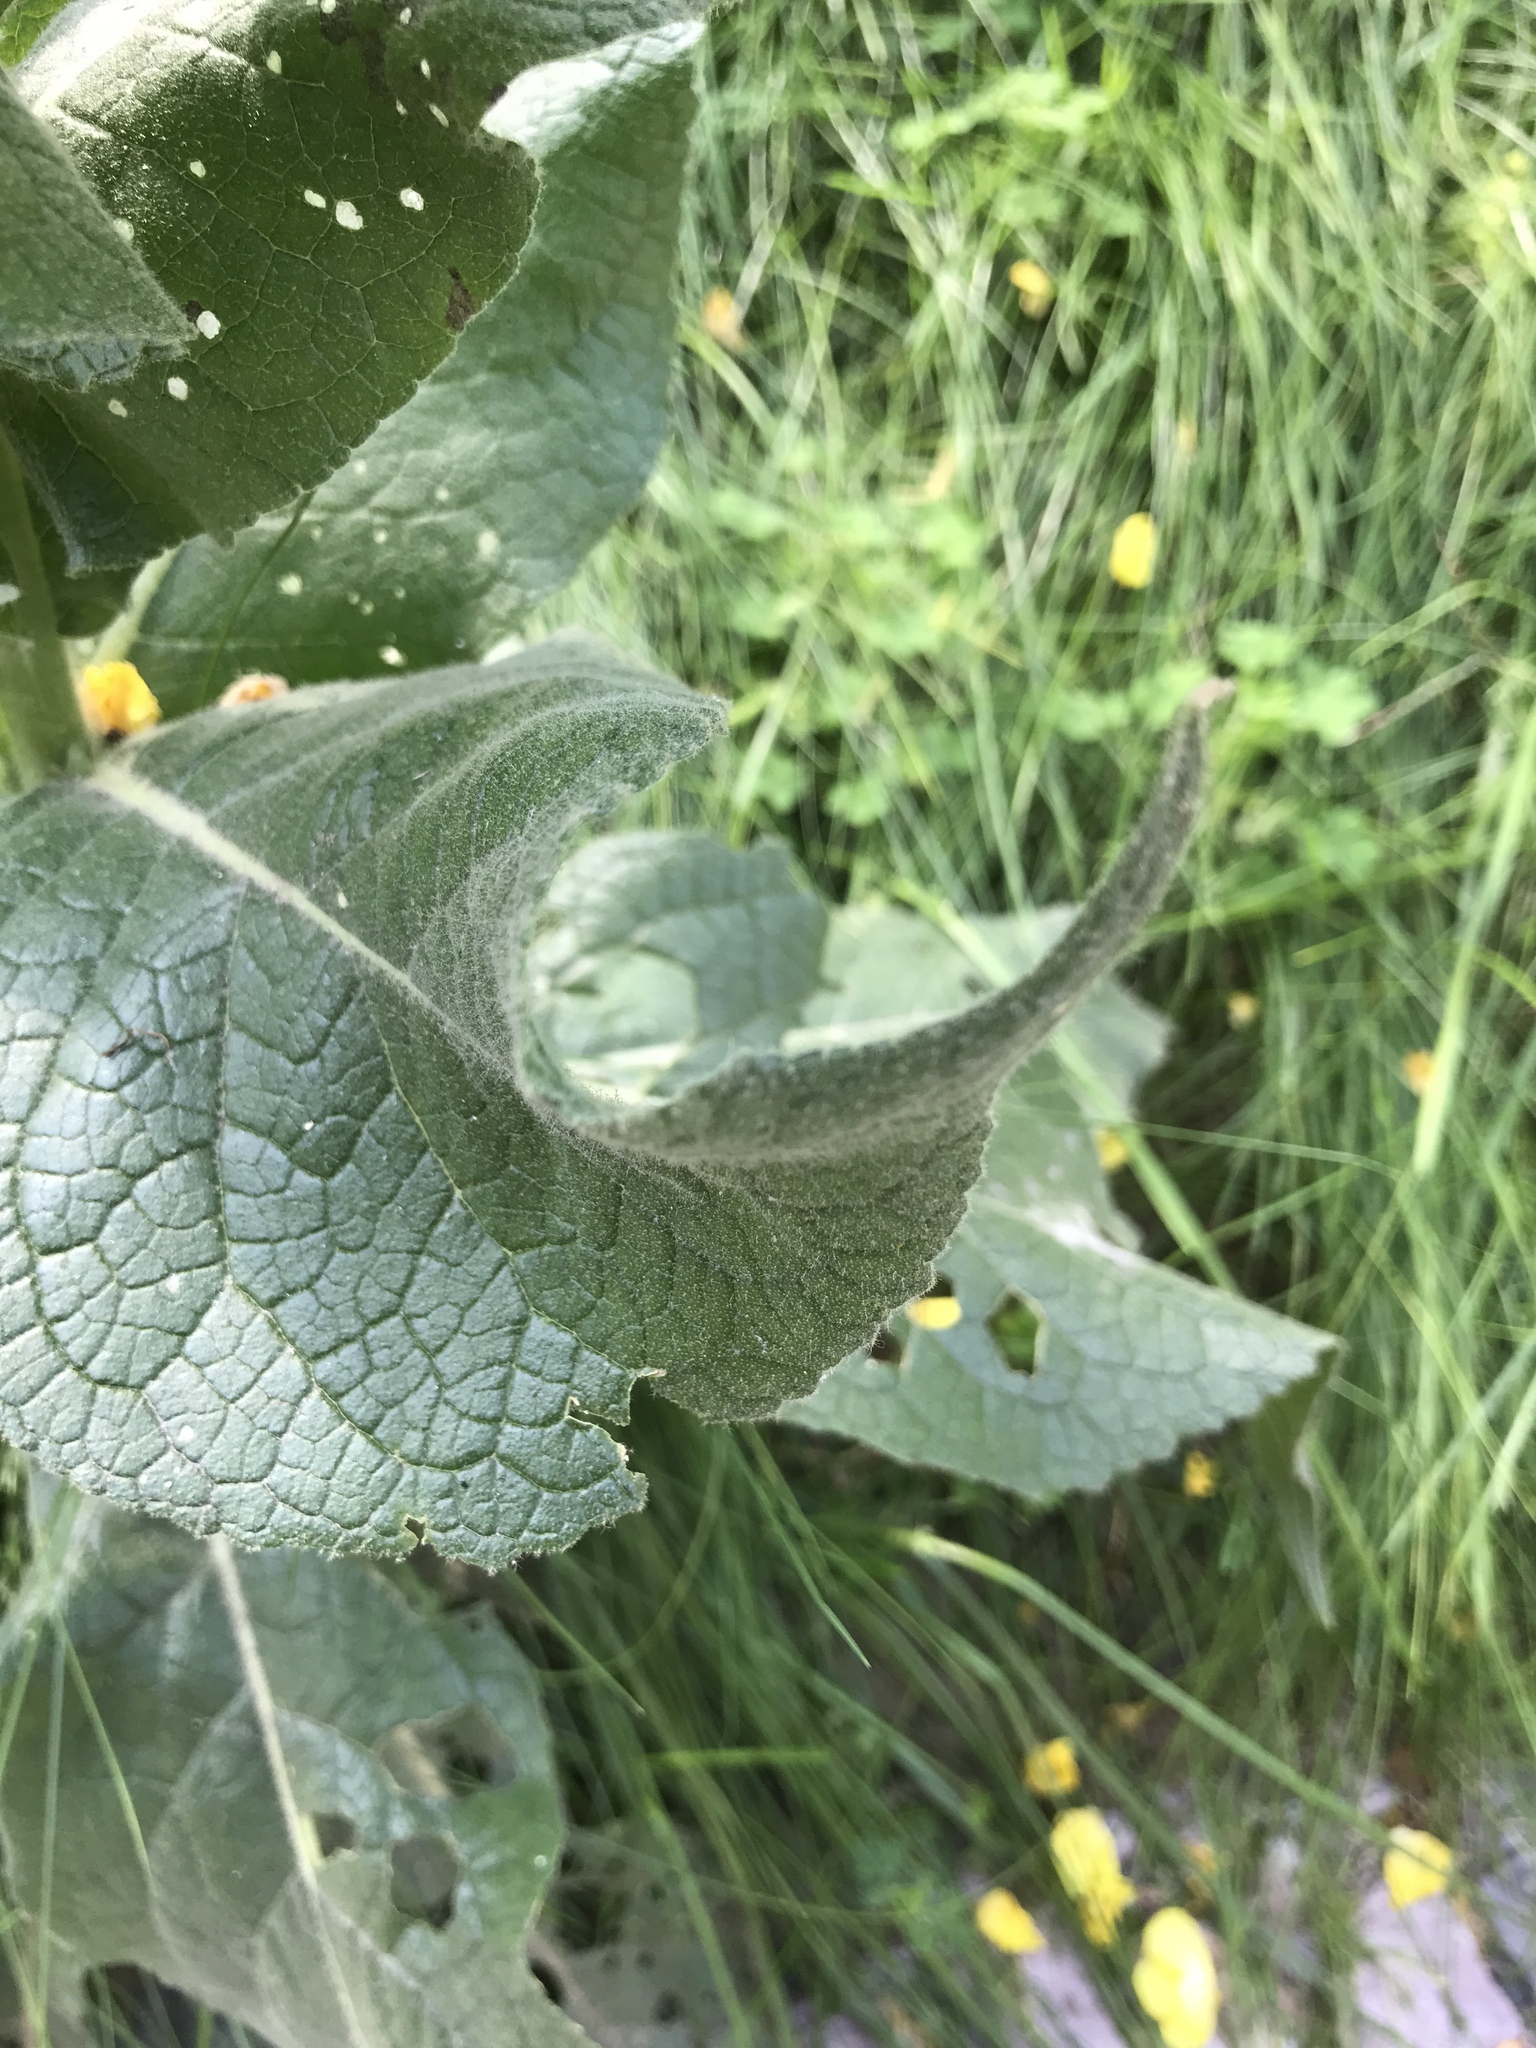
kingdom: Plantae
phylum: Tracheophyta
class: Magnoliopsida
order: Lamiales
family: Scrophulariaceae
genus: Verbascum
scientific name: Verbascum phlomoides
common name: Orange mullein
